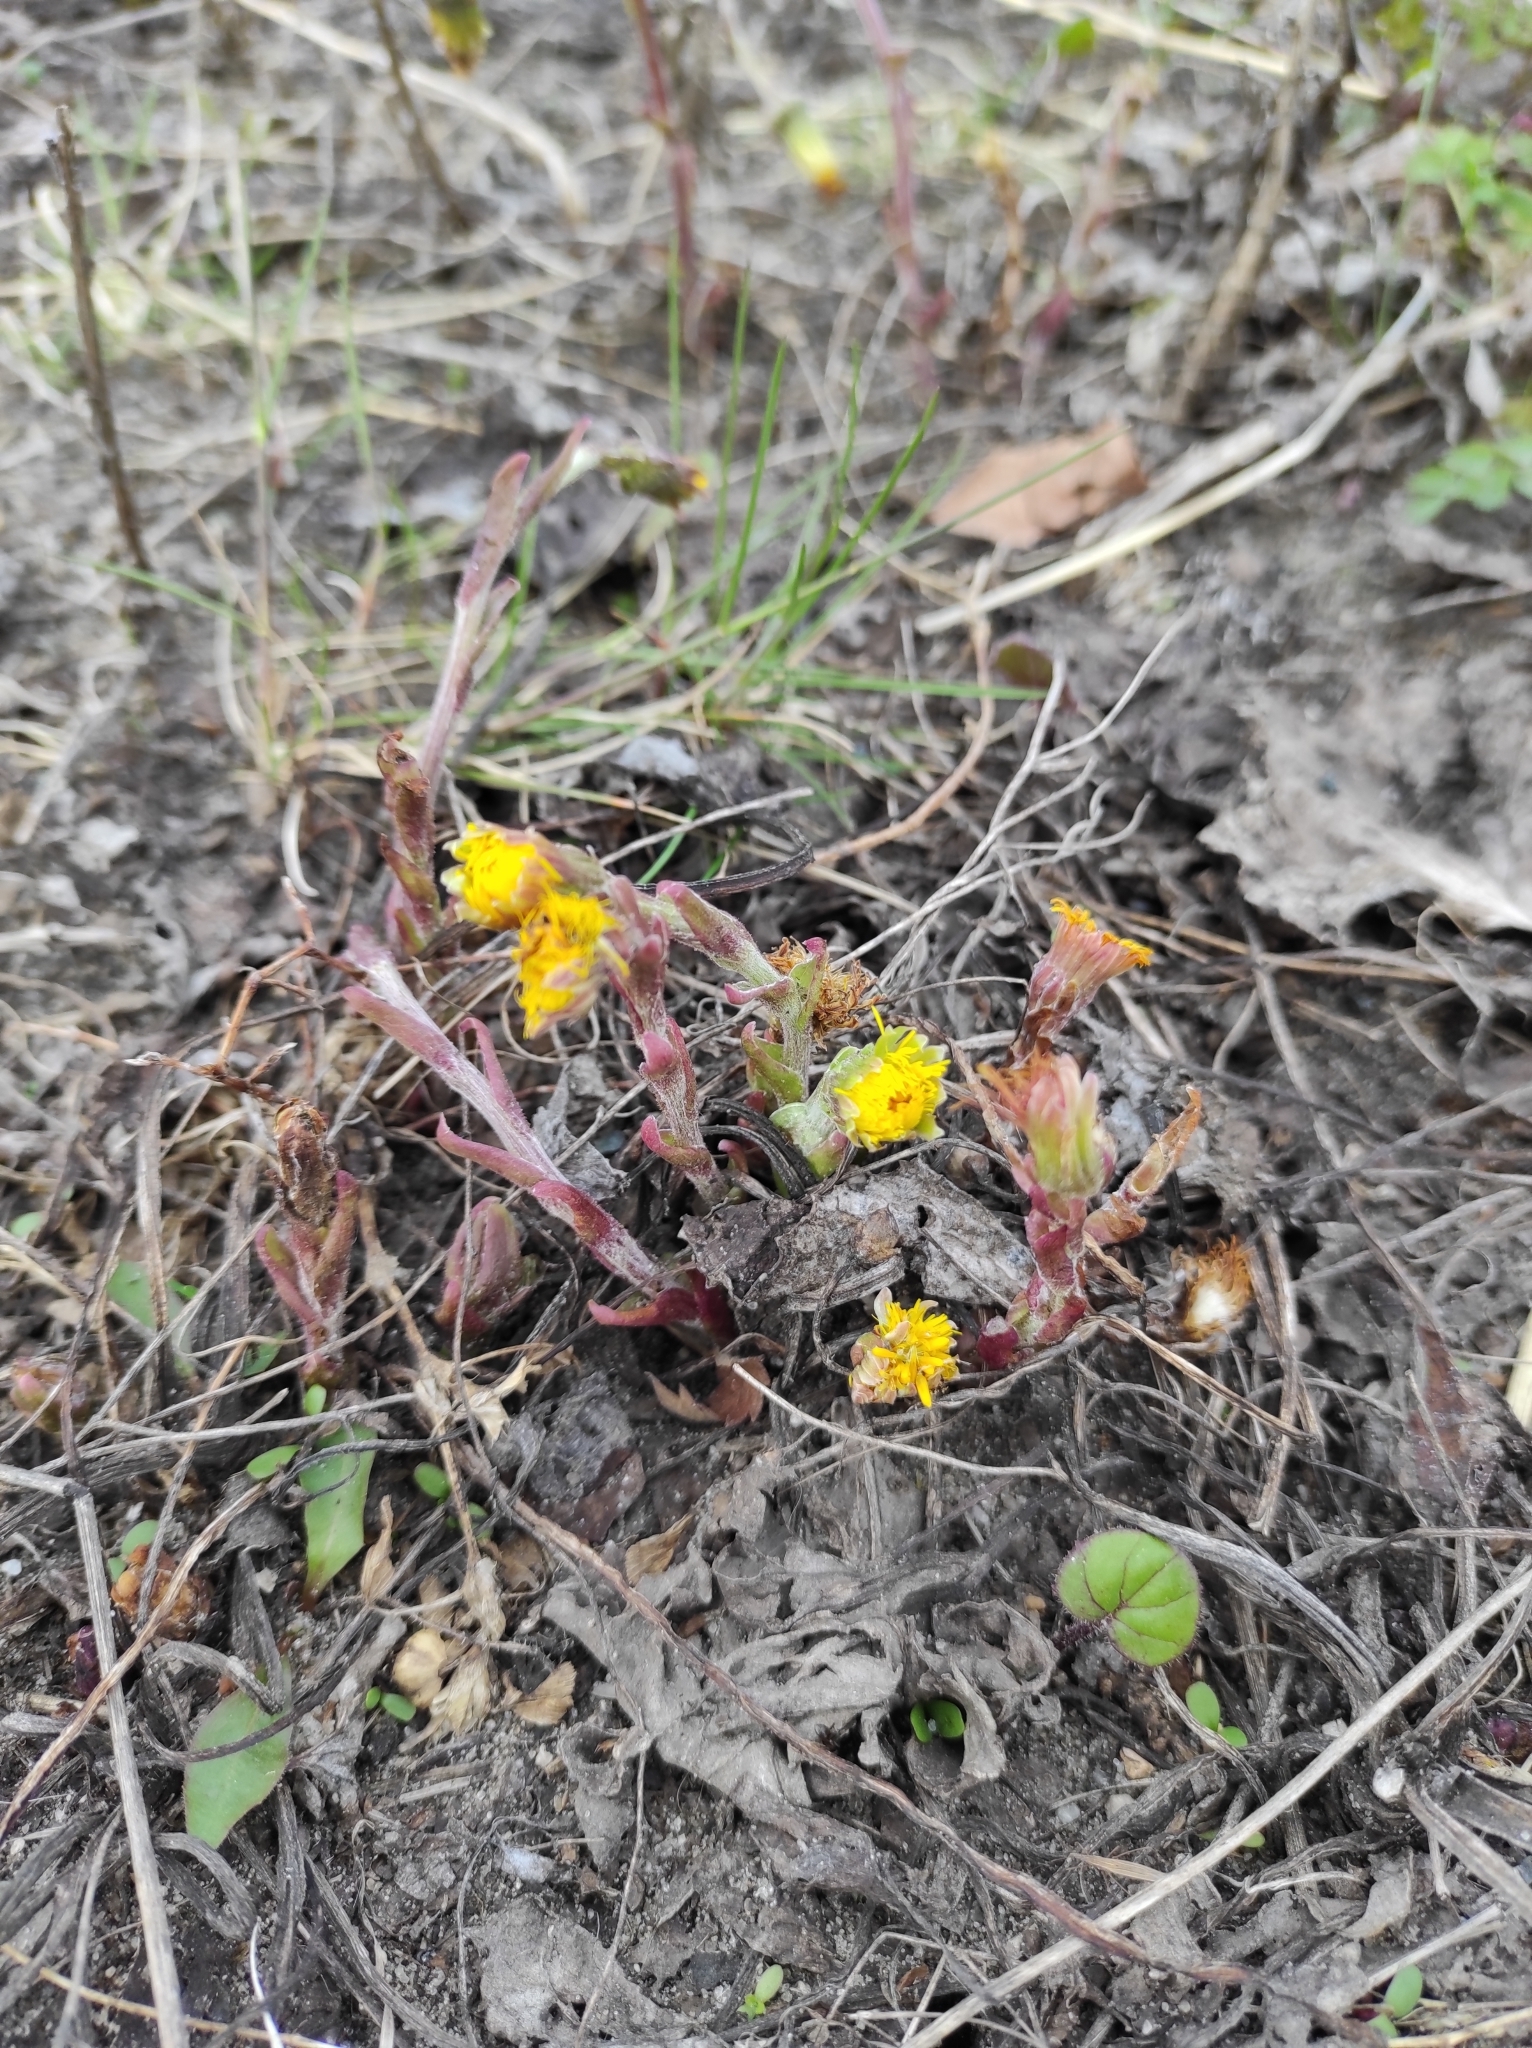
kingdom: Plantae
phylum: Tracheophyta
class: Magnoliopsida
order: Asterales
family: Asteraceae
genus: Tussilago
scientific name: Tussilago farfara
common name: Coltsfoot
